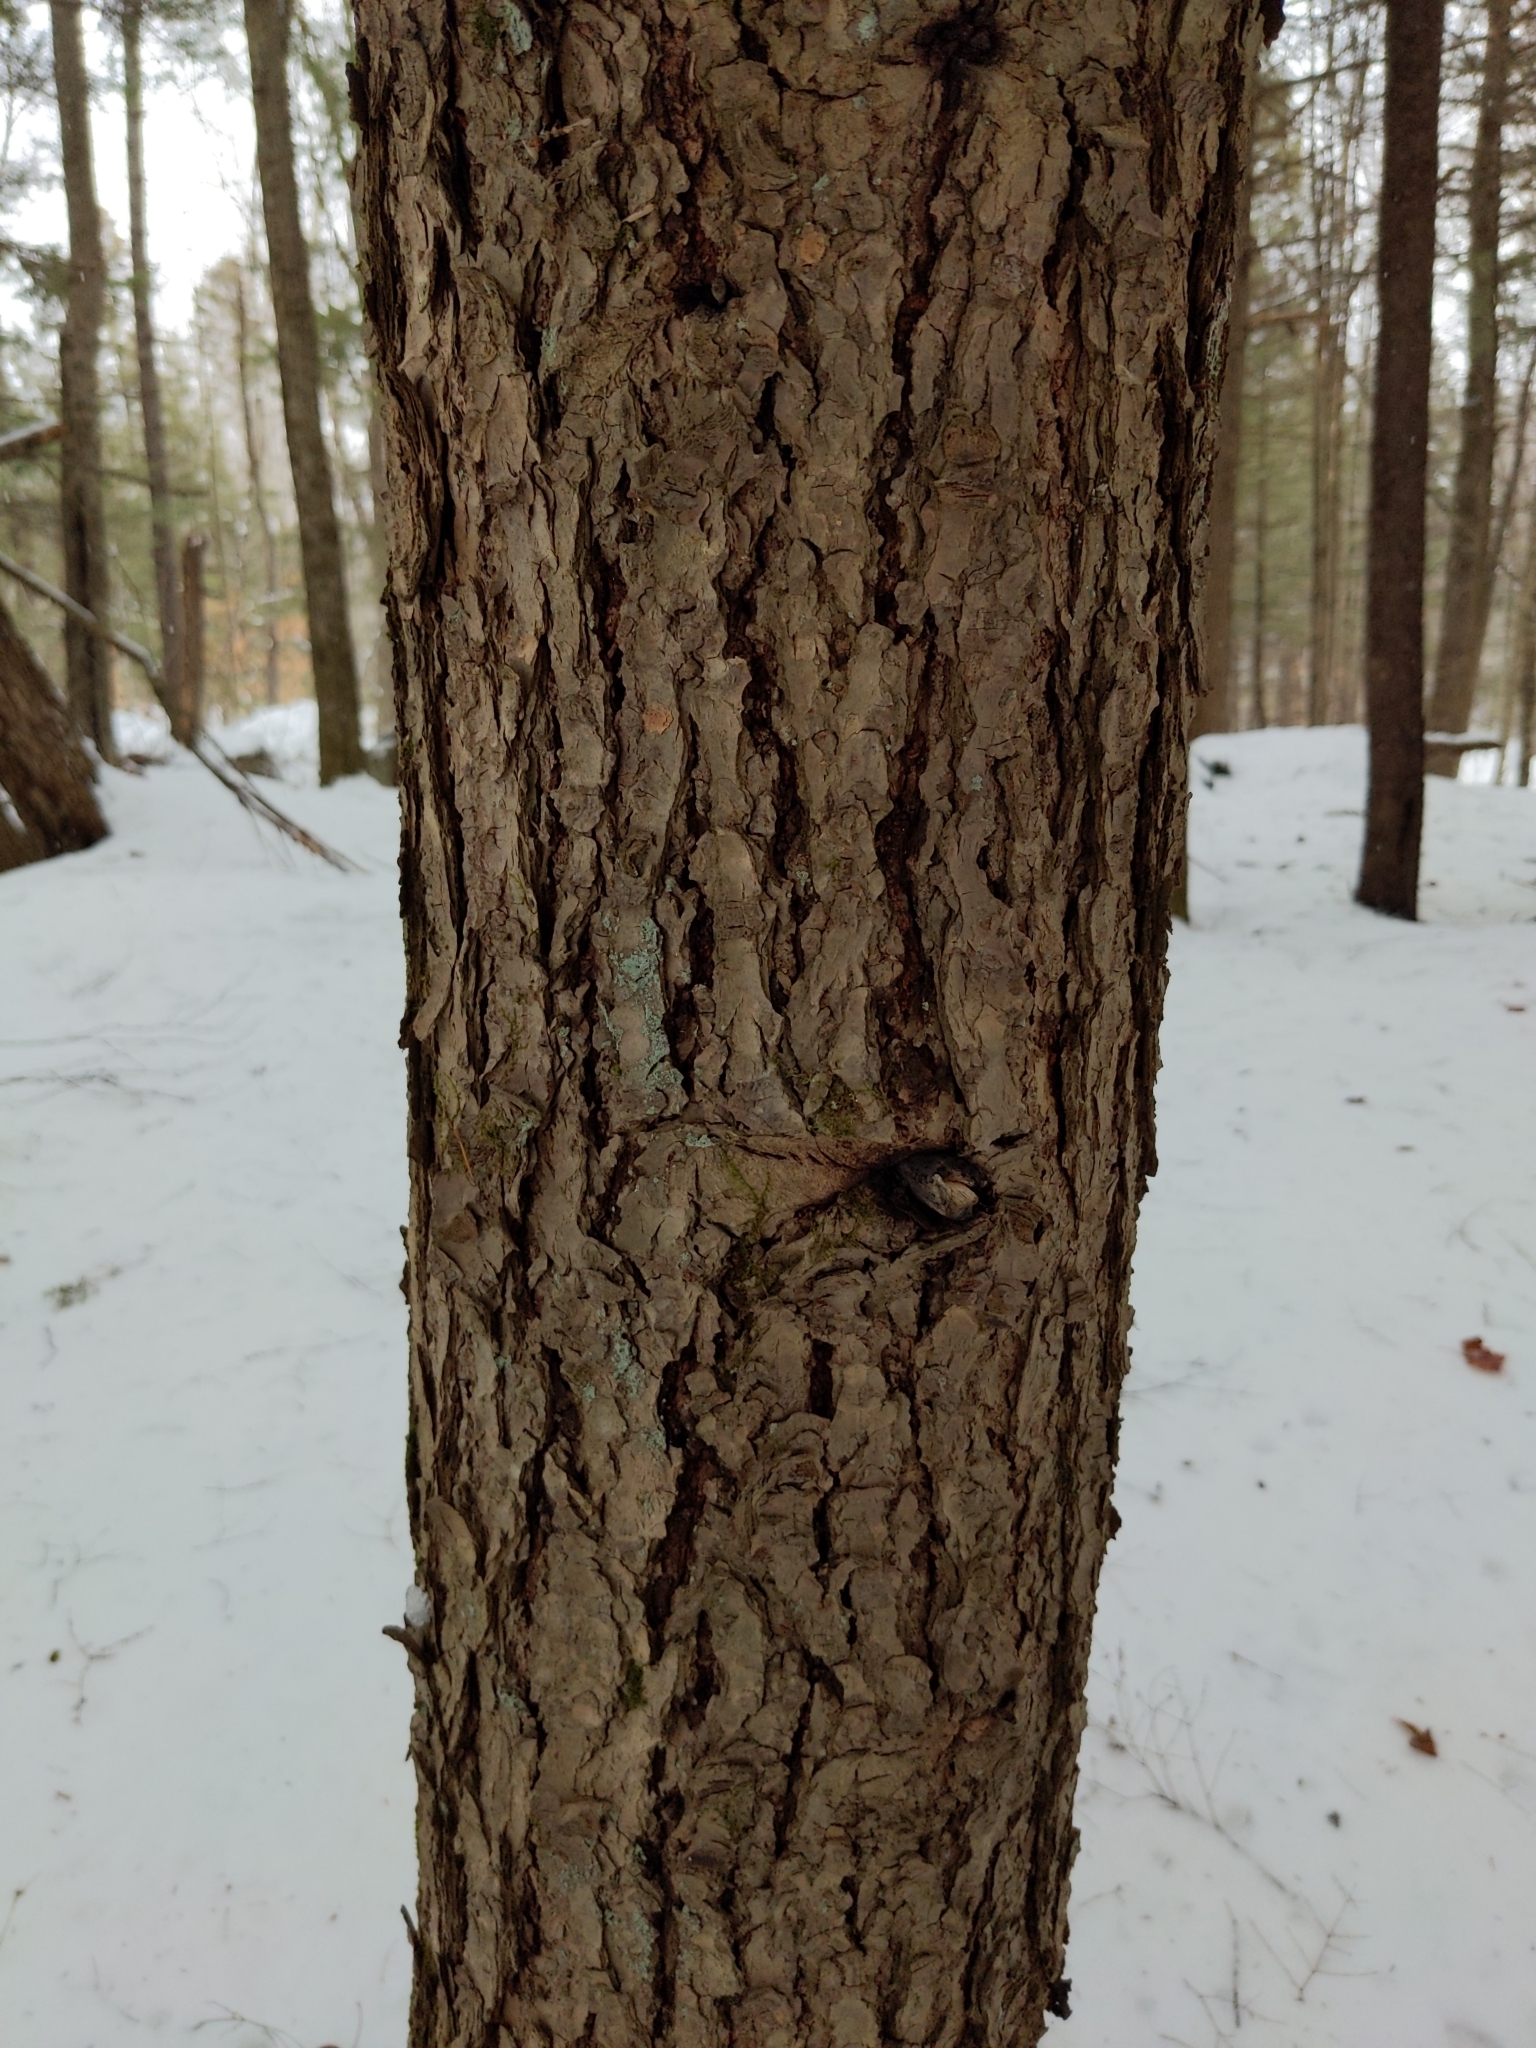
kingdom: Plantae
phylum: Tracheophyta
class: Pinopsida
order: Pinales
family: Pinaceae
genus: Tsuga
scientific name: Tsuga canadensis
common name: Eastern hemlock
